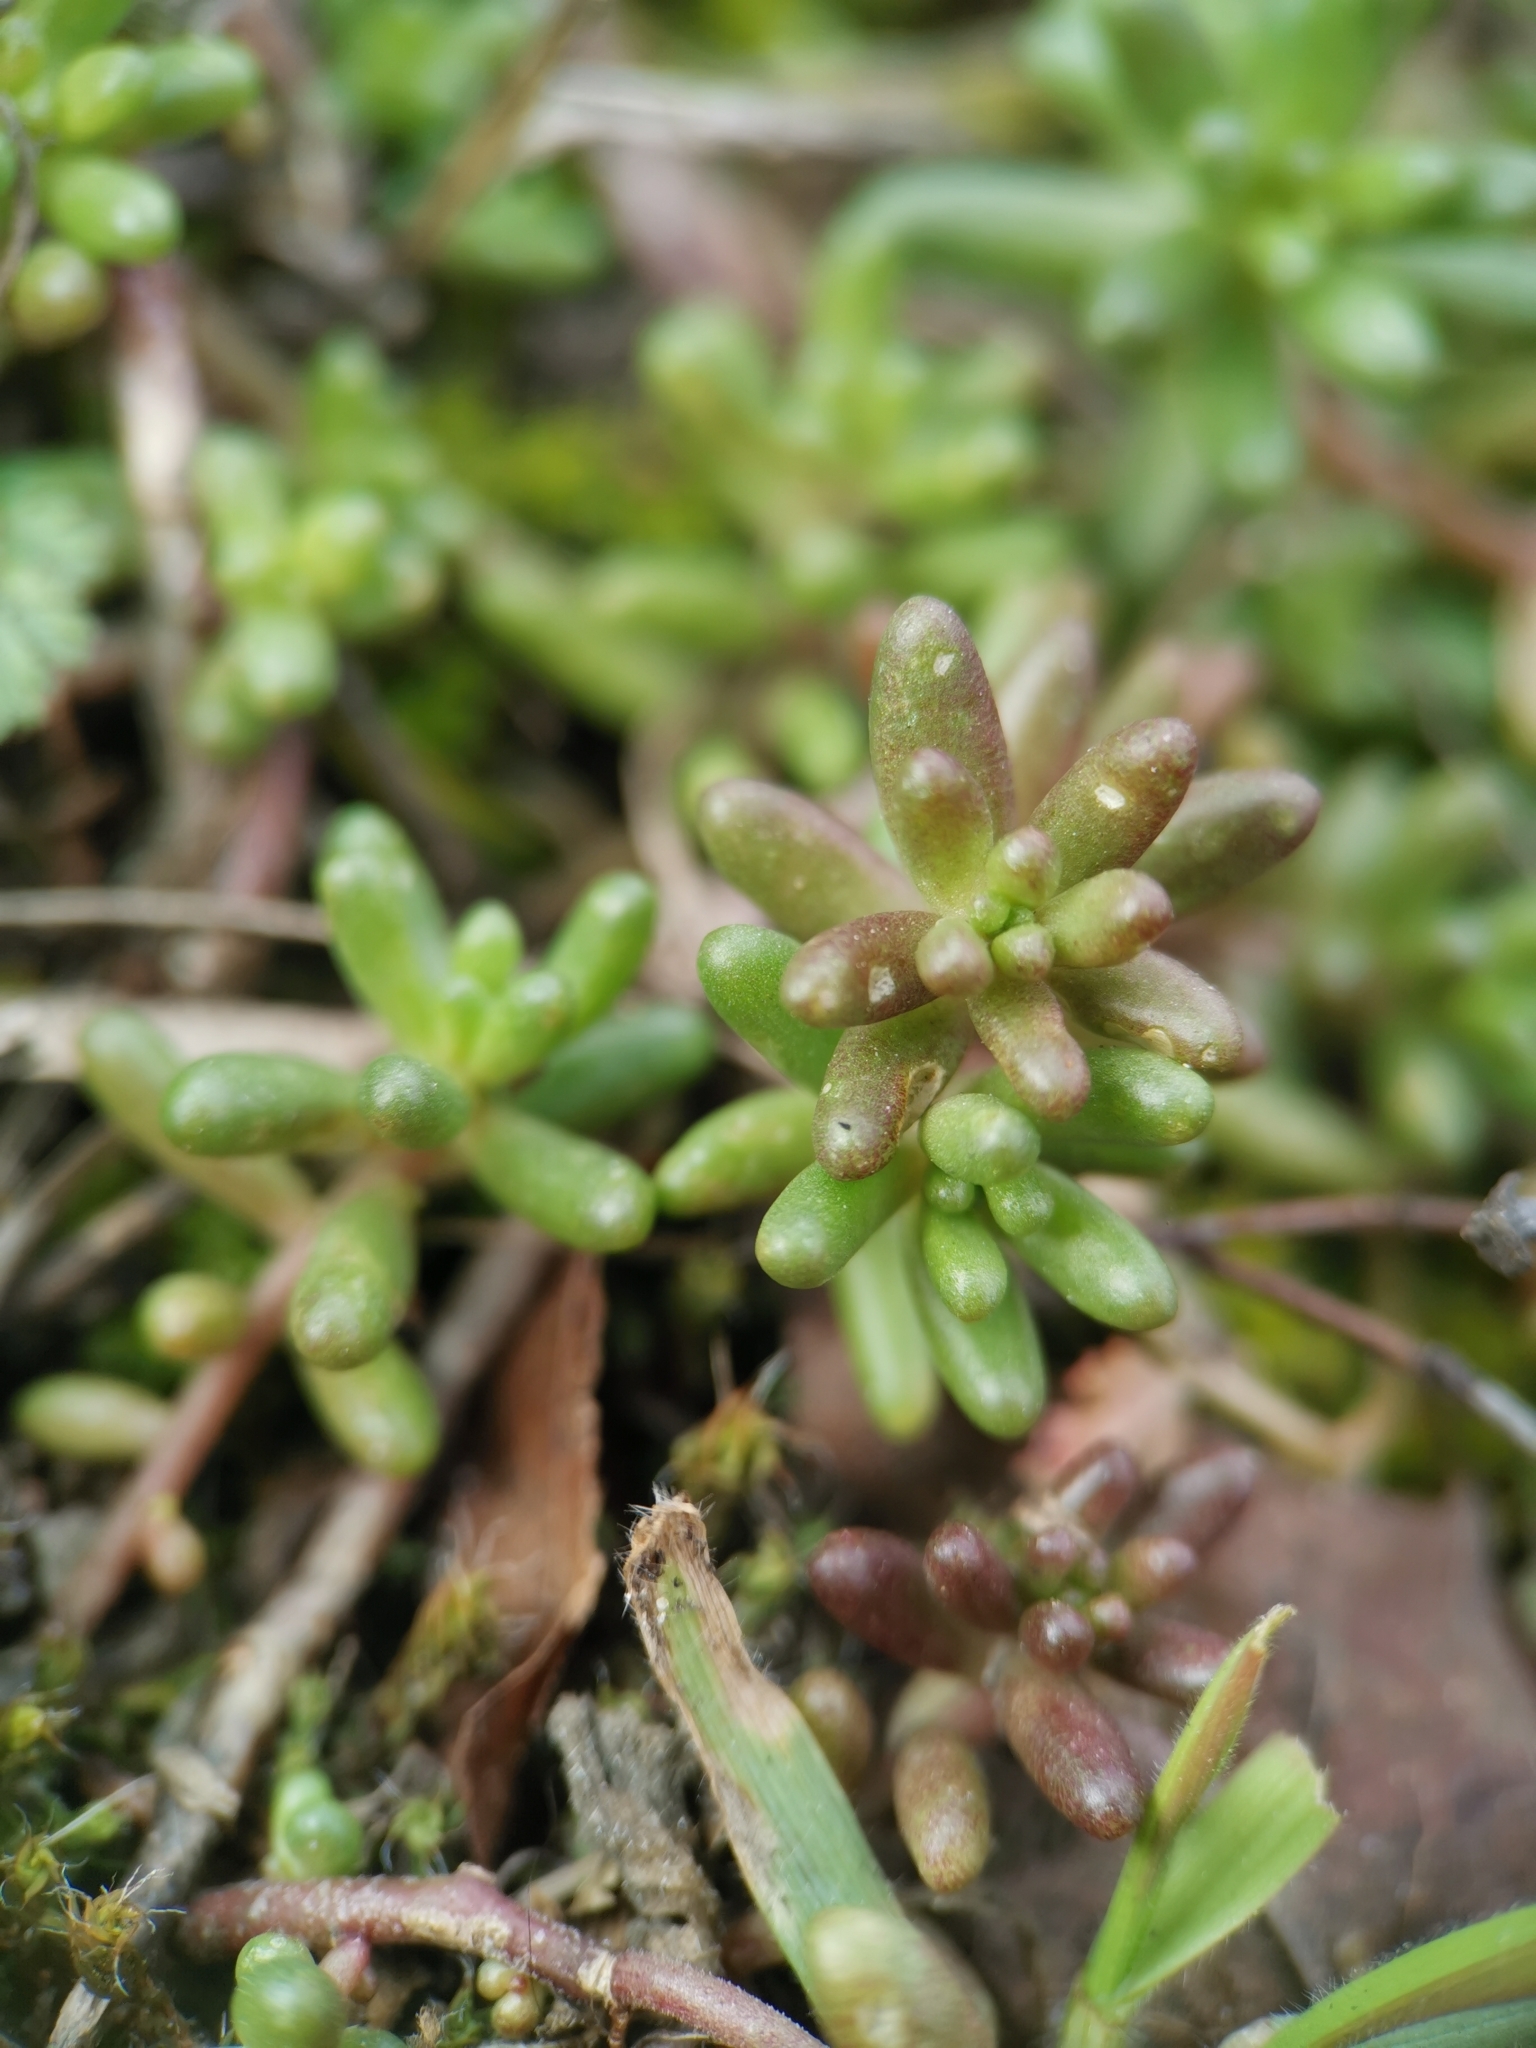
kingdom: Plantae
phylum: Tracheophyta
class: Magnoliopsida
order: Saxifragales
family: Crassulaceae
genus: Sedum
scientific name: Sedum album
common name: White stonecrop
